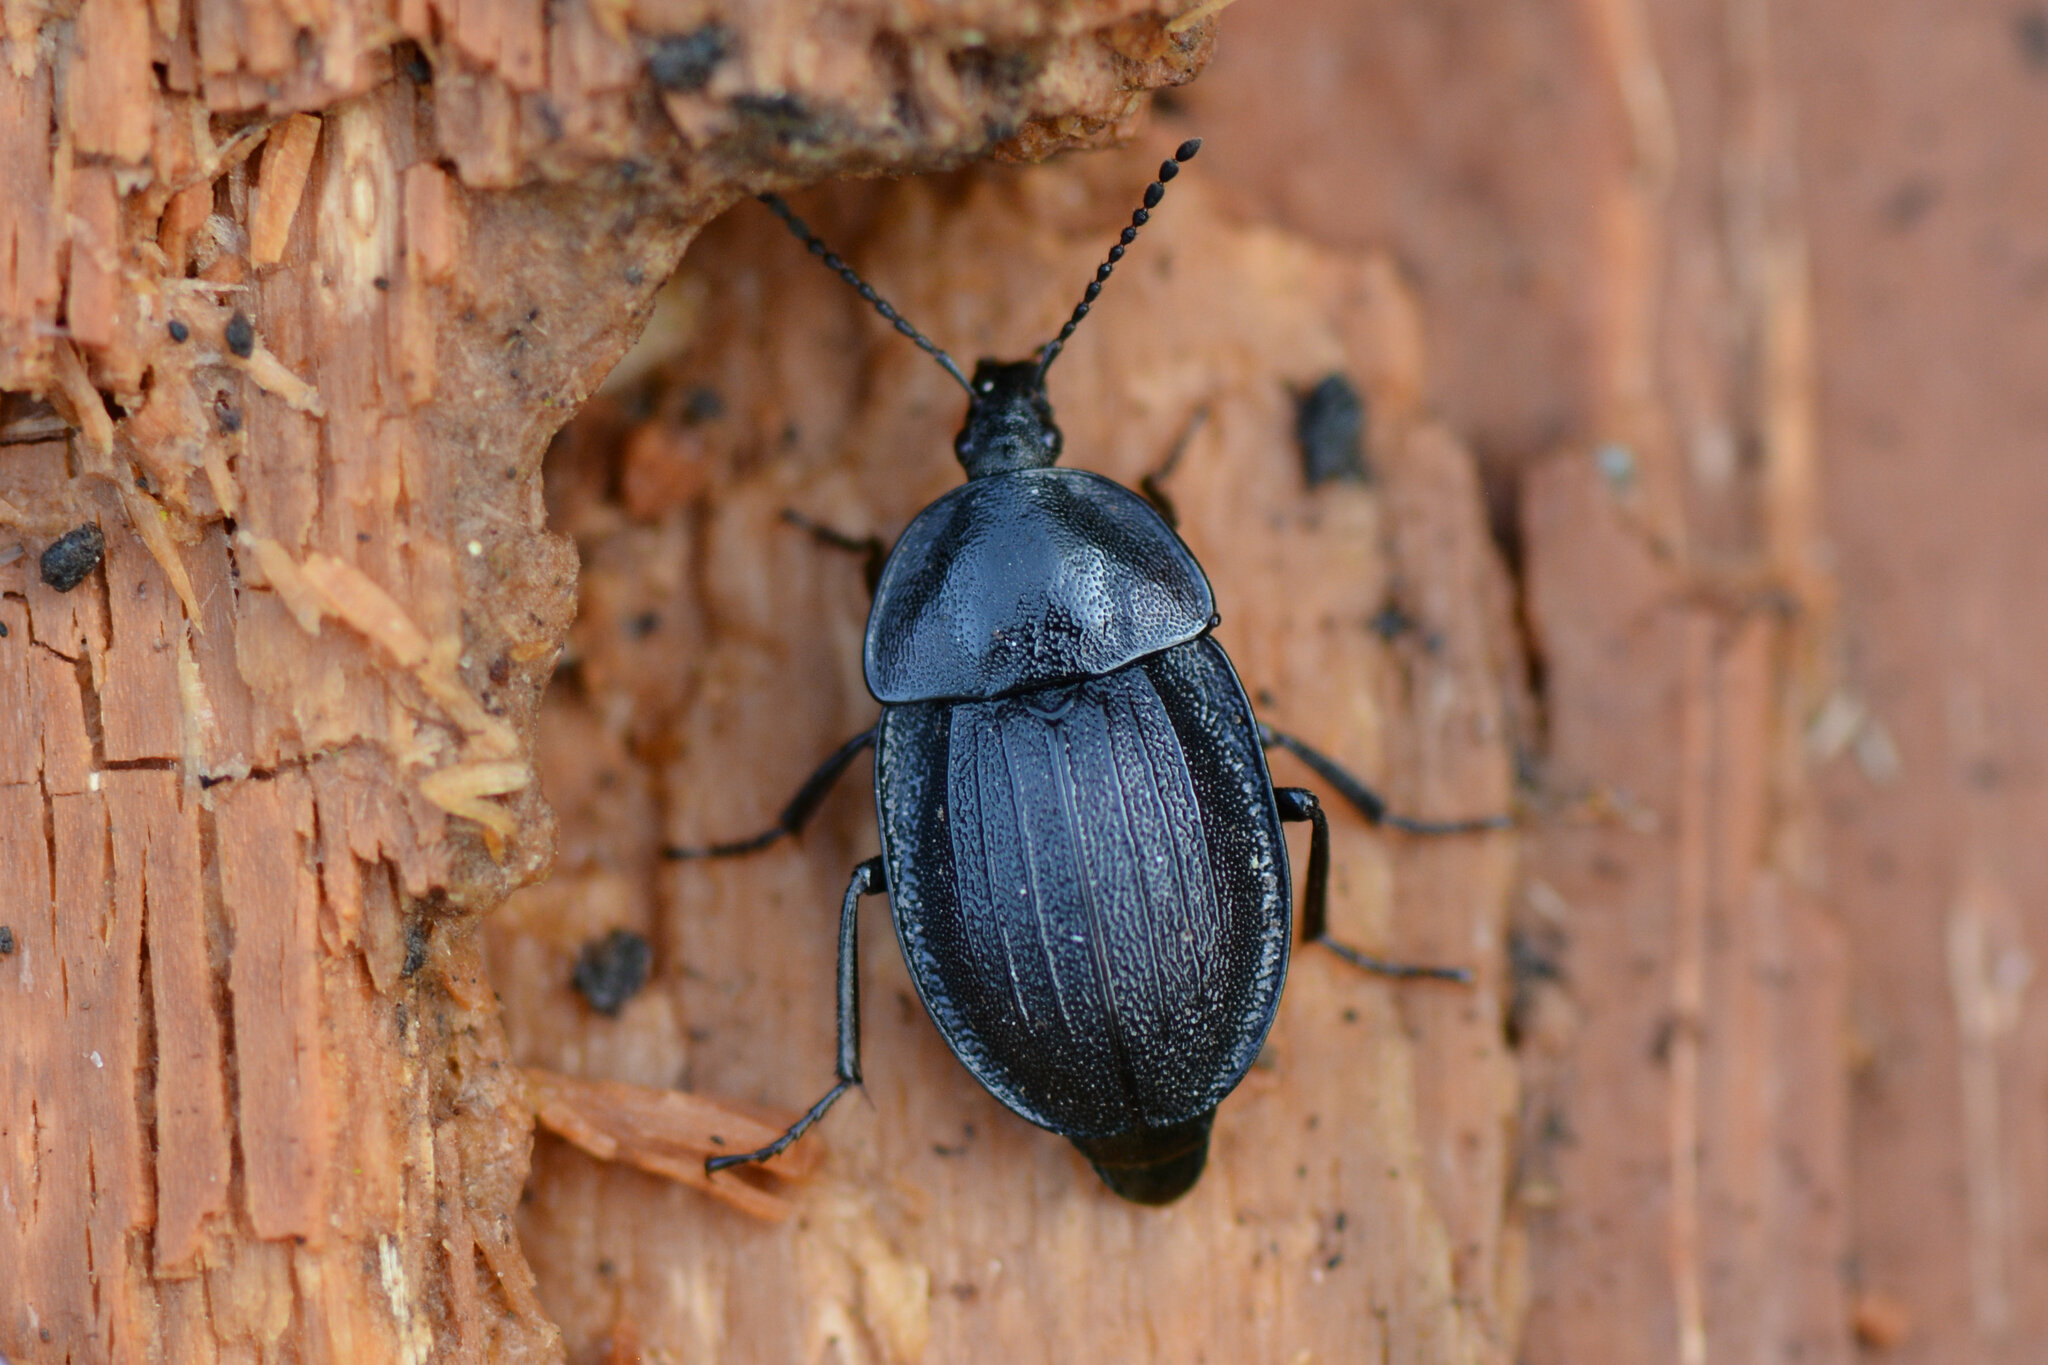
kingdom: Animalia
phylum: Arthropoda
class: Insecta
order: Coleoptera
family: Staphylinidae
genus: Silpha
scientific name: Silpha atrata
